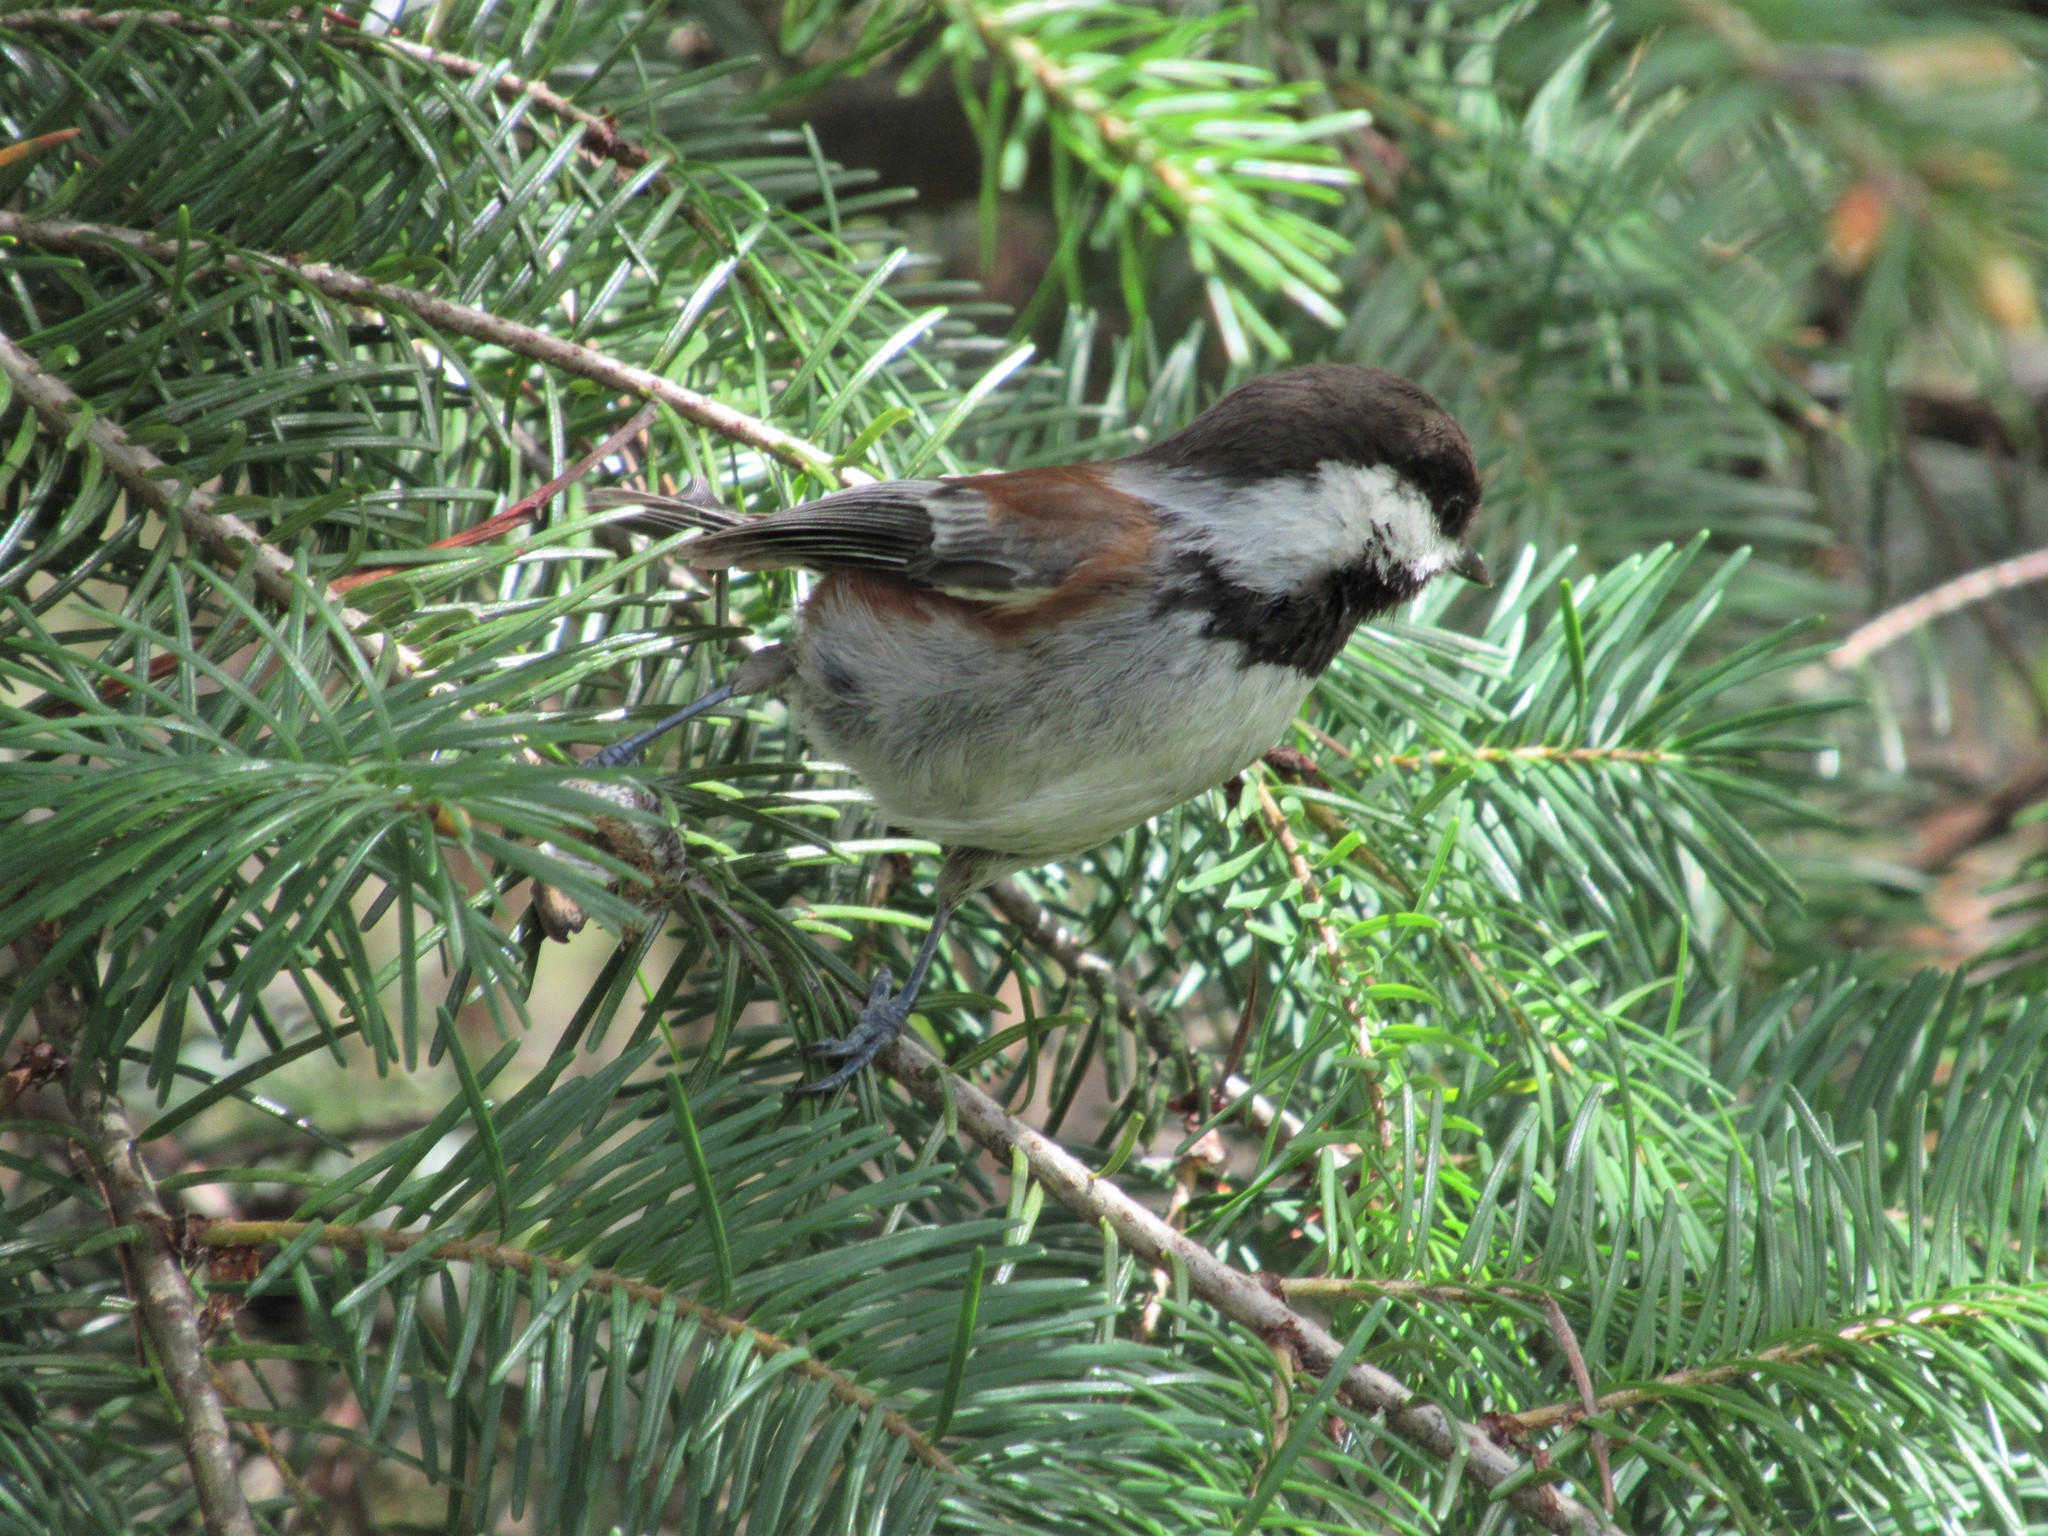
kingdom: Animalia
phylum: Chordata
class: Aves
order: Passeriformes
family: Paridae
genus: Poecile
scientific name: Poecile rufescens
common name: Chestnut-backed chickadee
